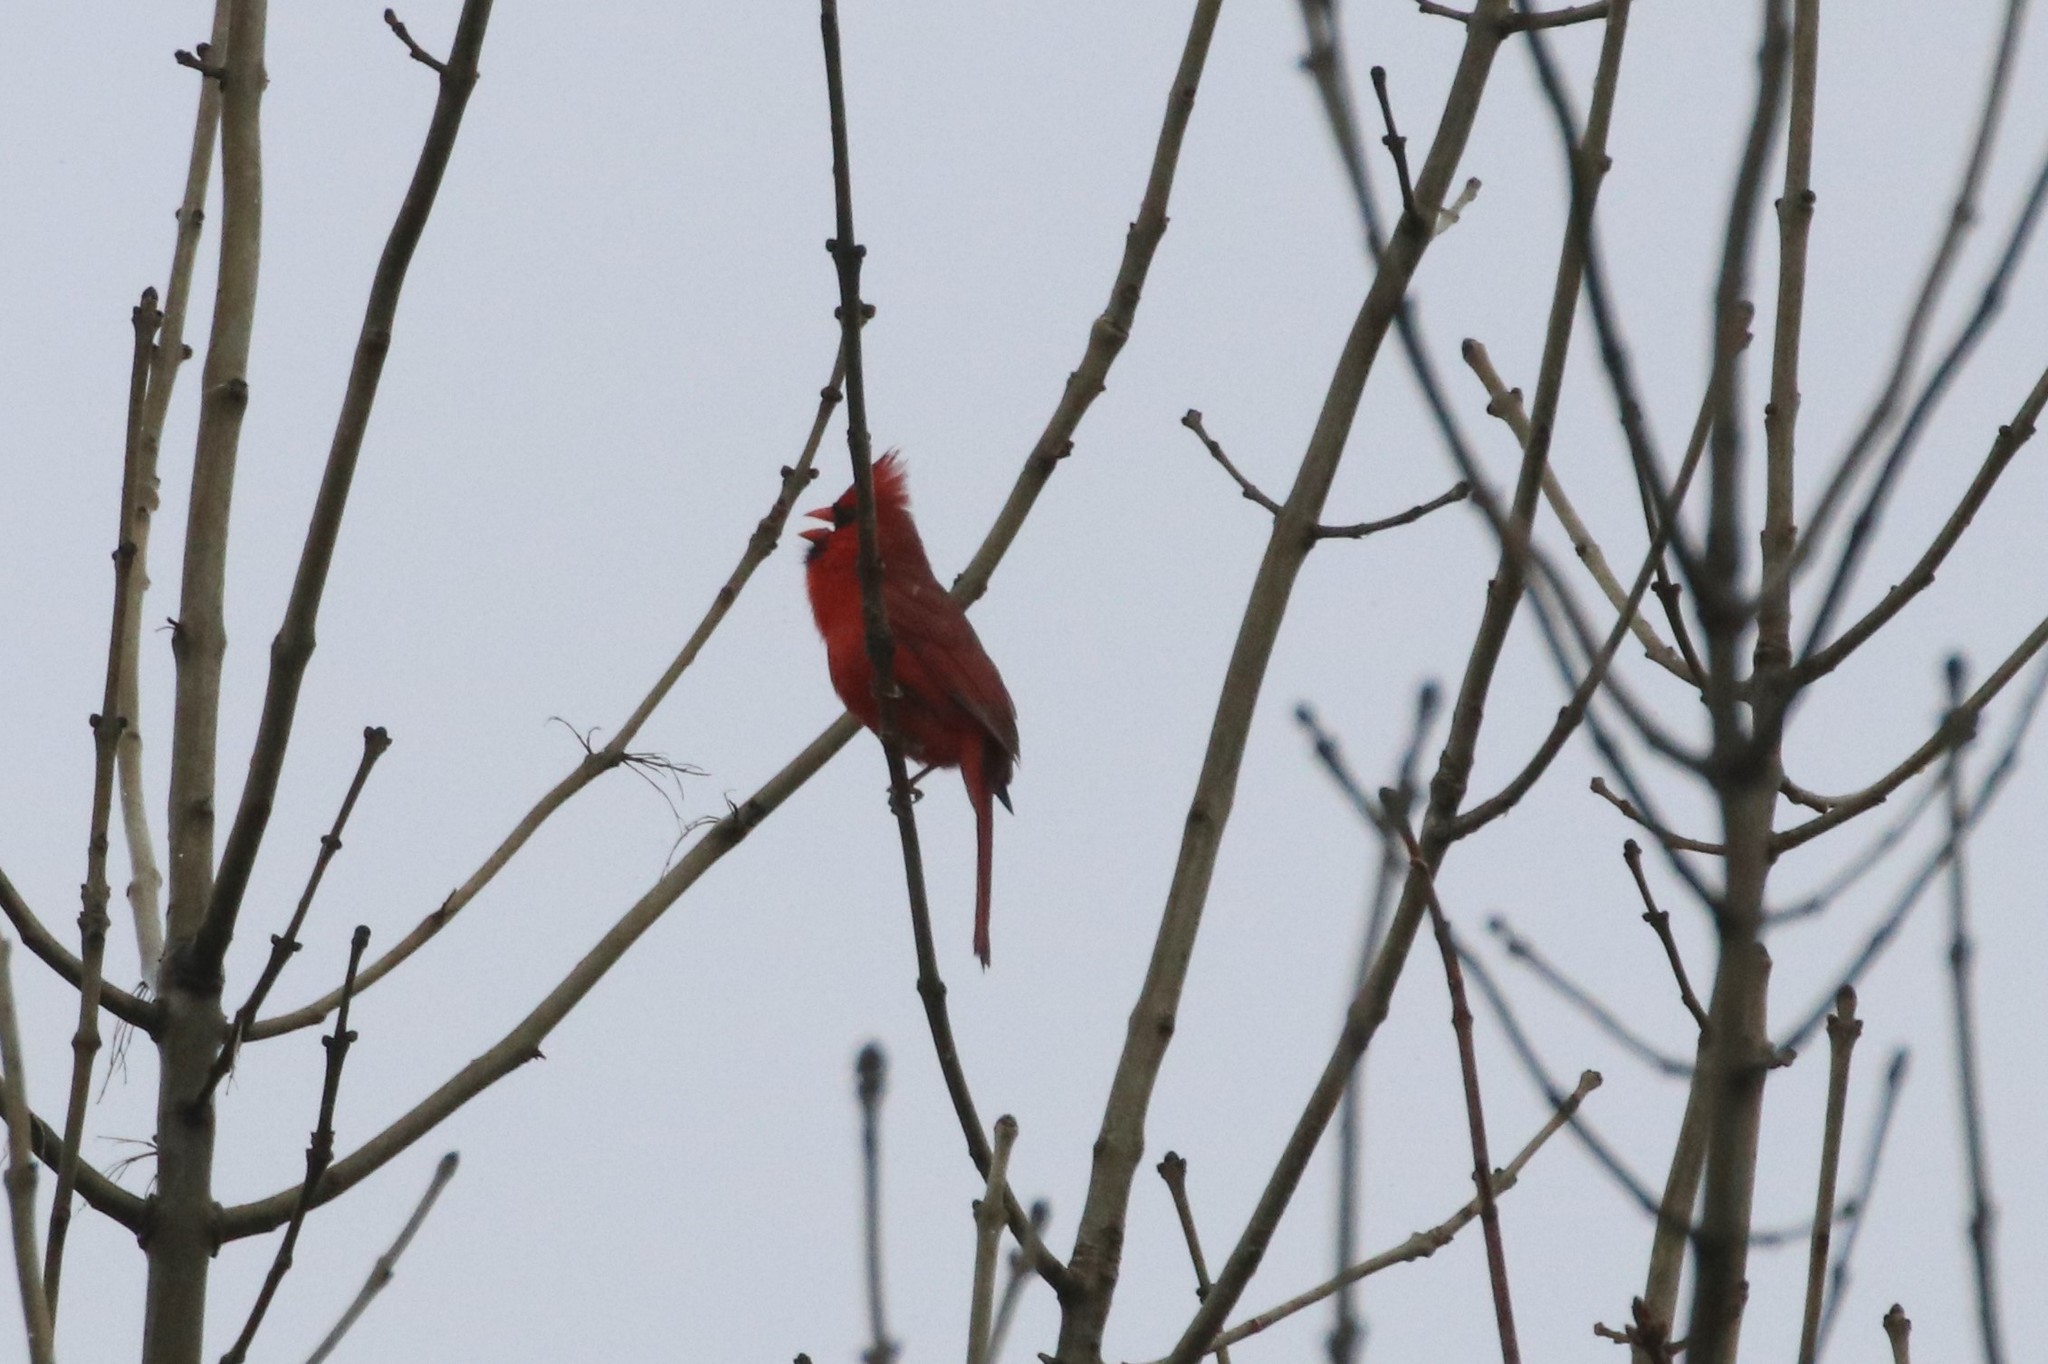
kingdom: Animalia
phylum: Chordata
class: Aves
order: Passeriformes
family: Cardinalidae
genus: Cardinalis
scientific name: Cardinalis cardinalis
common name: Northern cardinal
